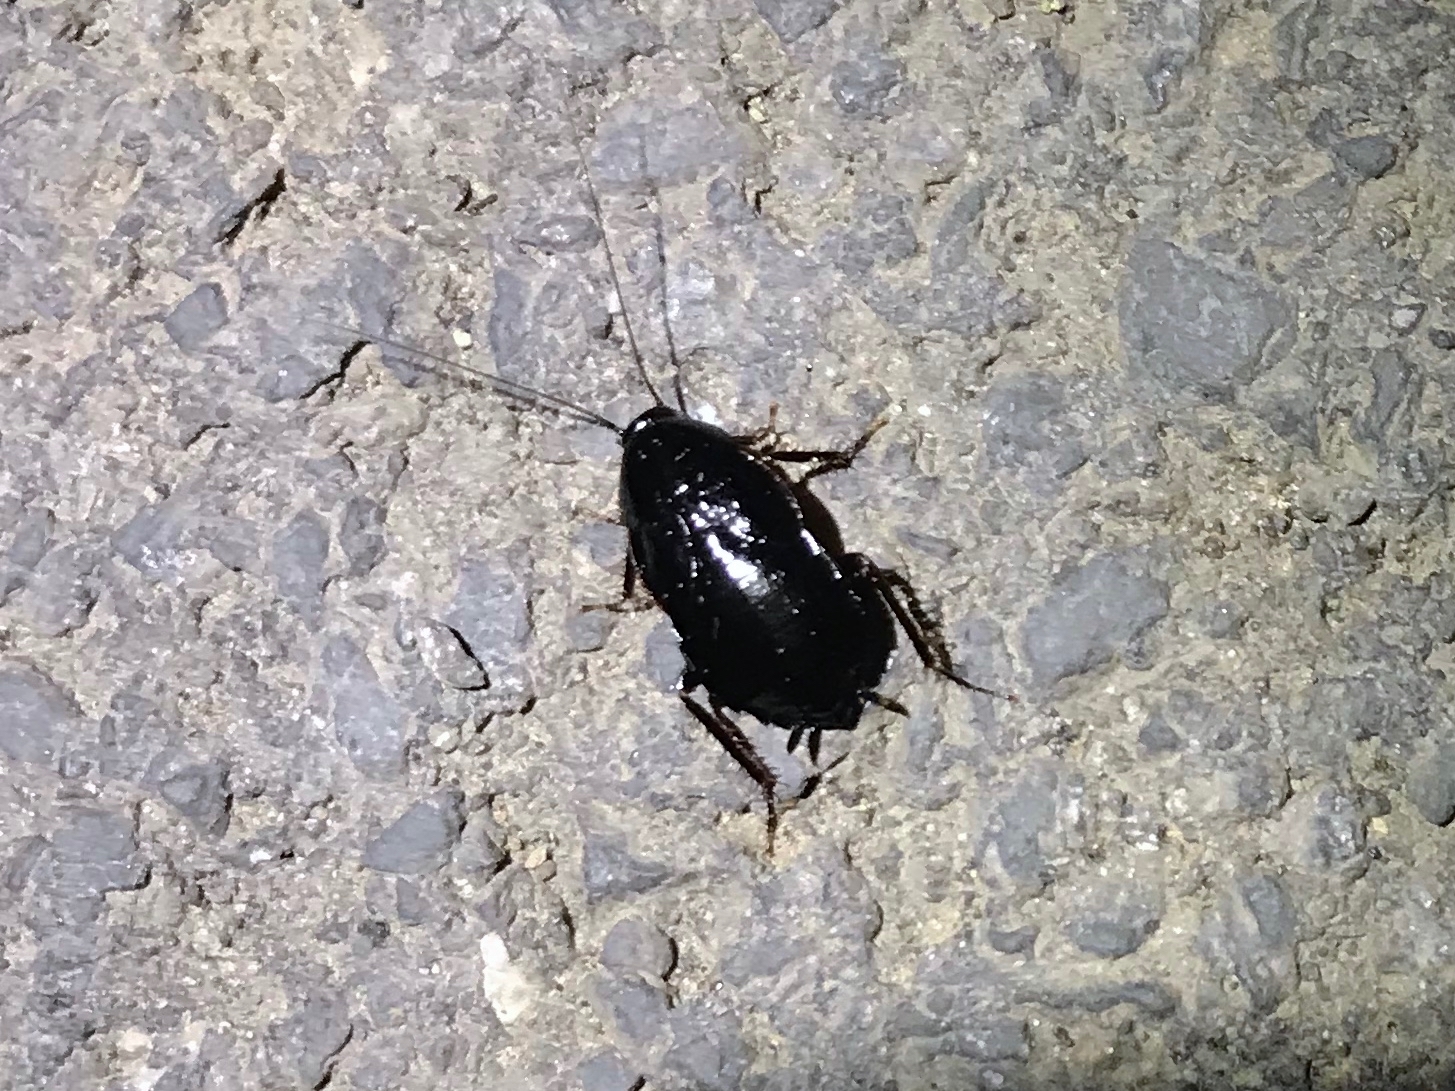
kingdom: Animalia
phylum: Arthropoda
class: Insecta
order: Blattodea
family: Ectobiidae
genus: Parcoblatta
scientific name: Parcoblatta uhleriana
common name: Uhler's wood cockroach
